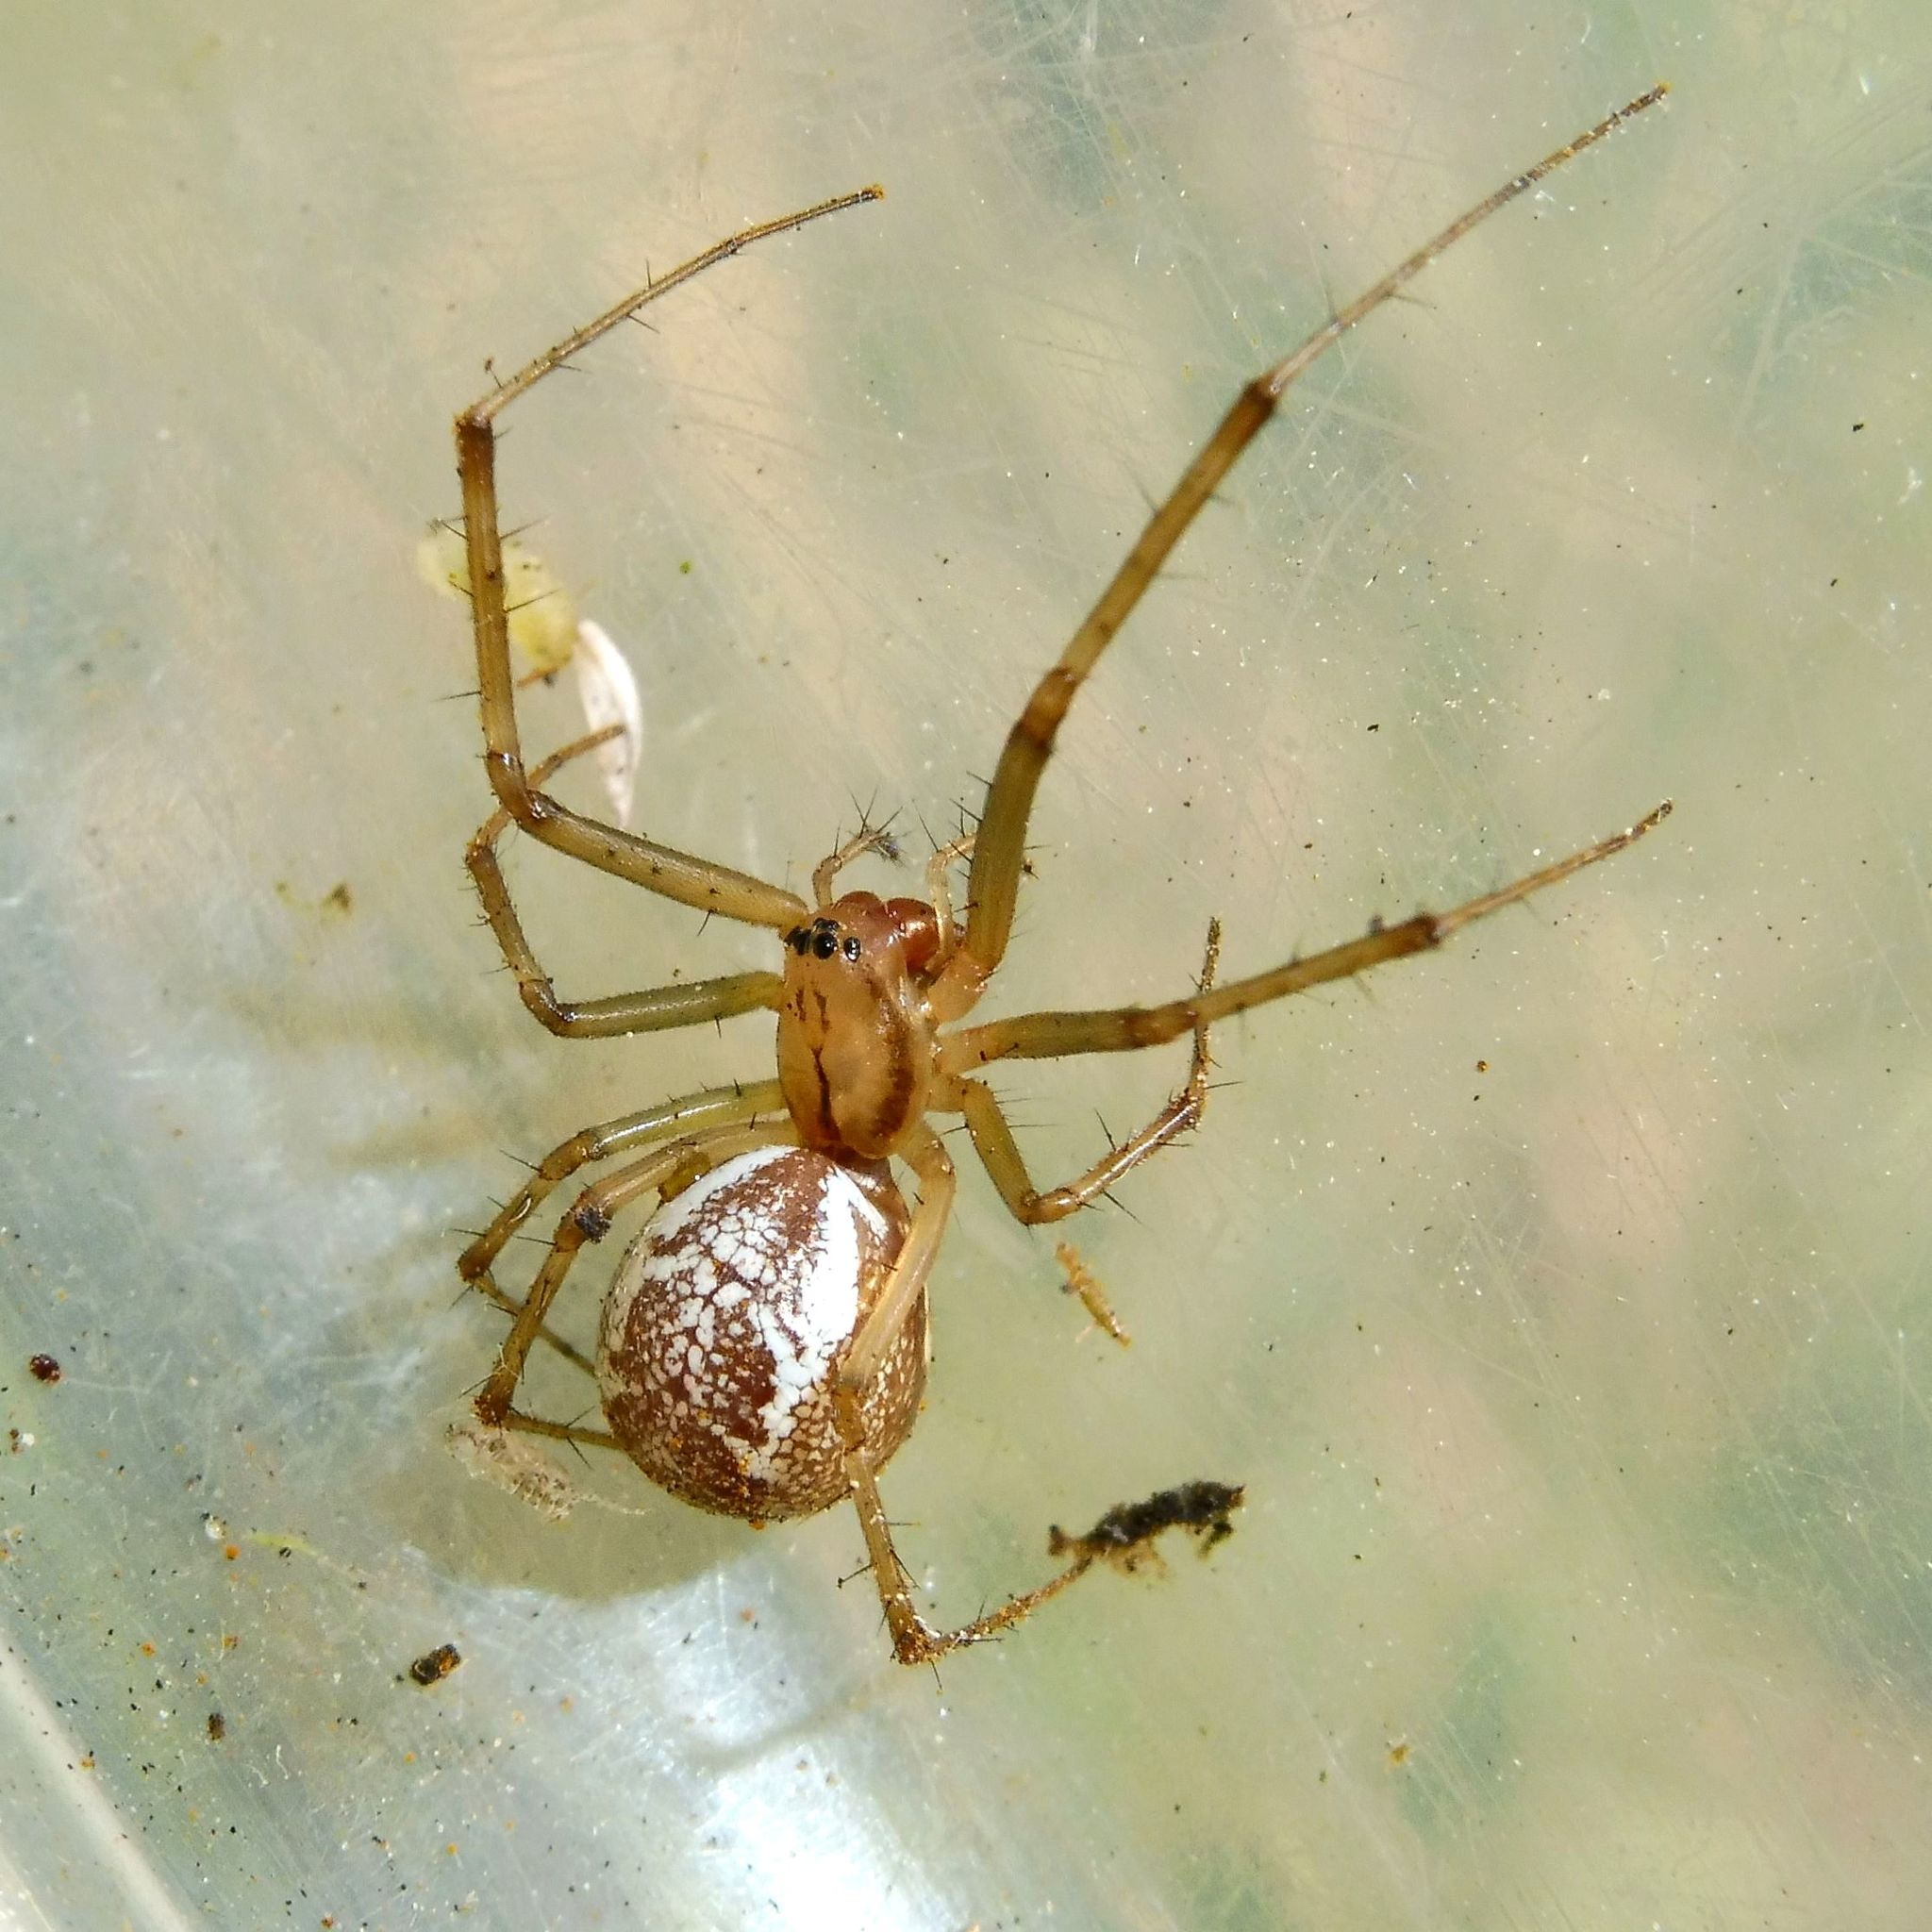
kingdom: Animalia
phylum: Arthropoda
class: Arachnida
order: Araneae
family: Linyphiidae
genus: Linyphia
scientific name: Linyphia triangularis
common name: Money spider
